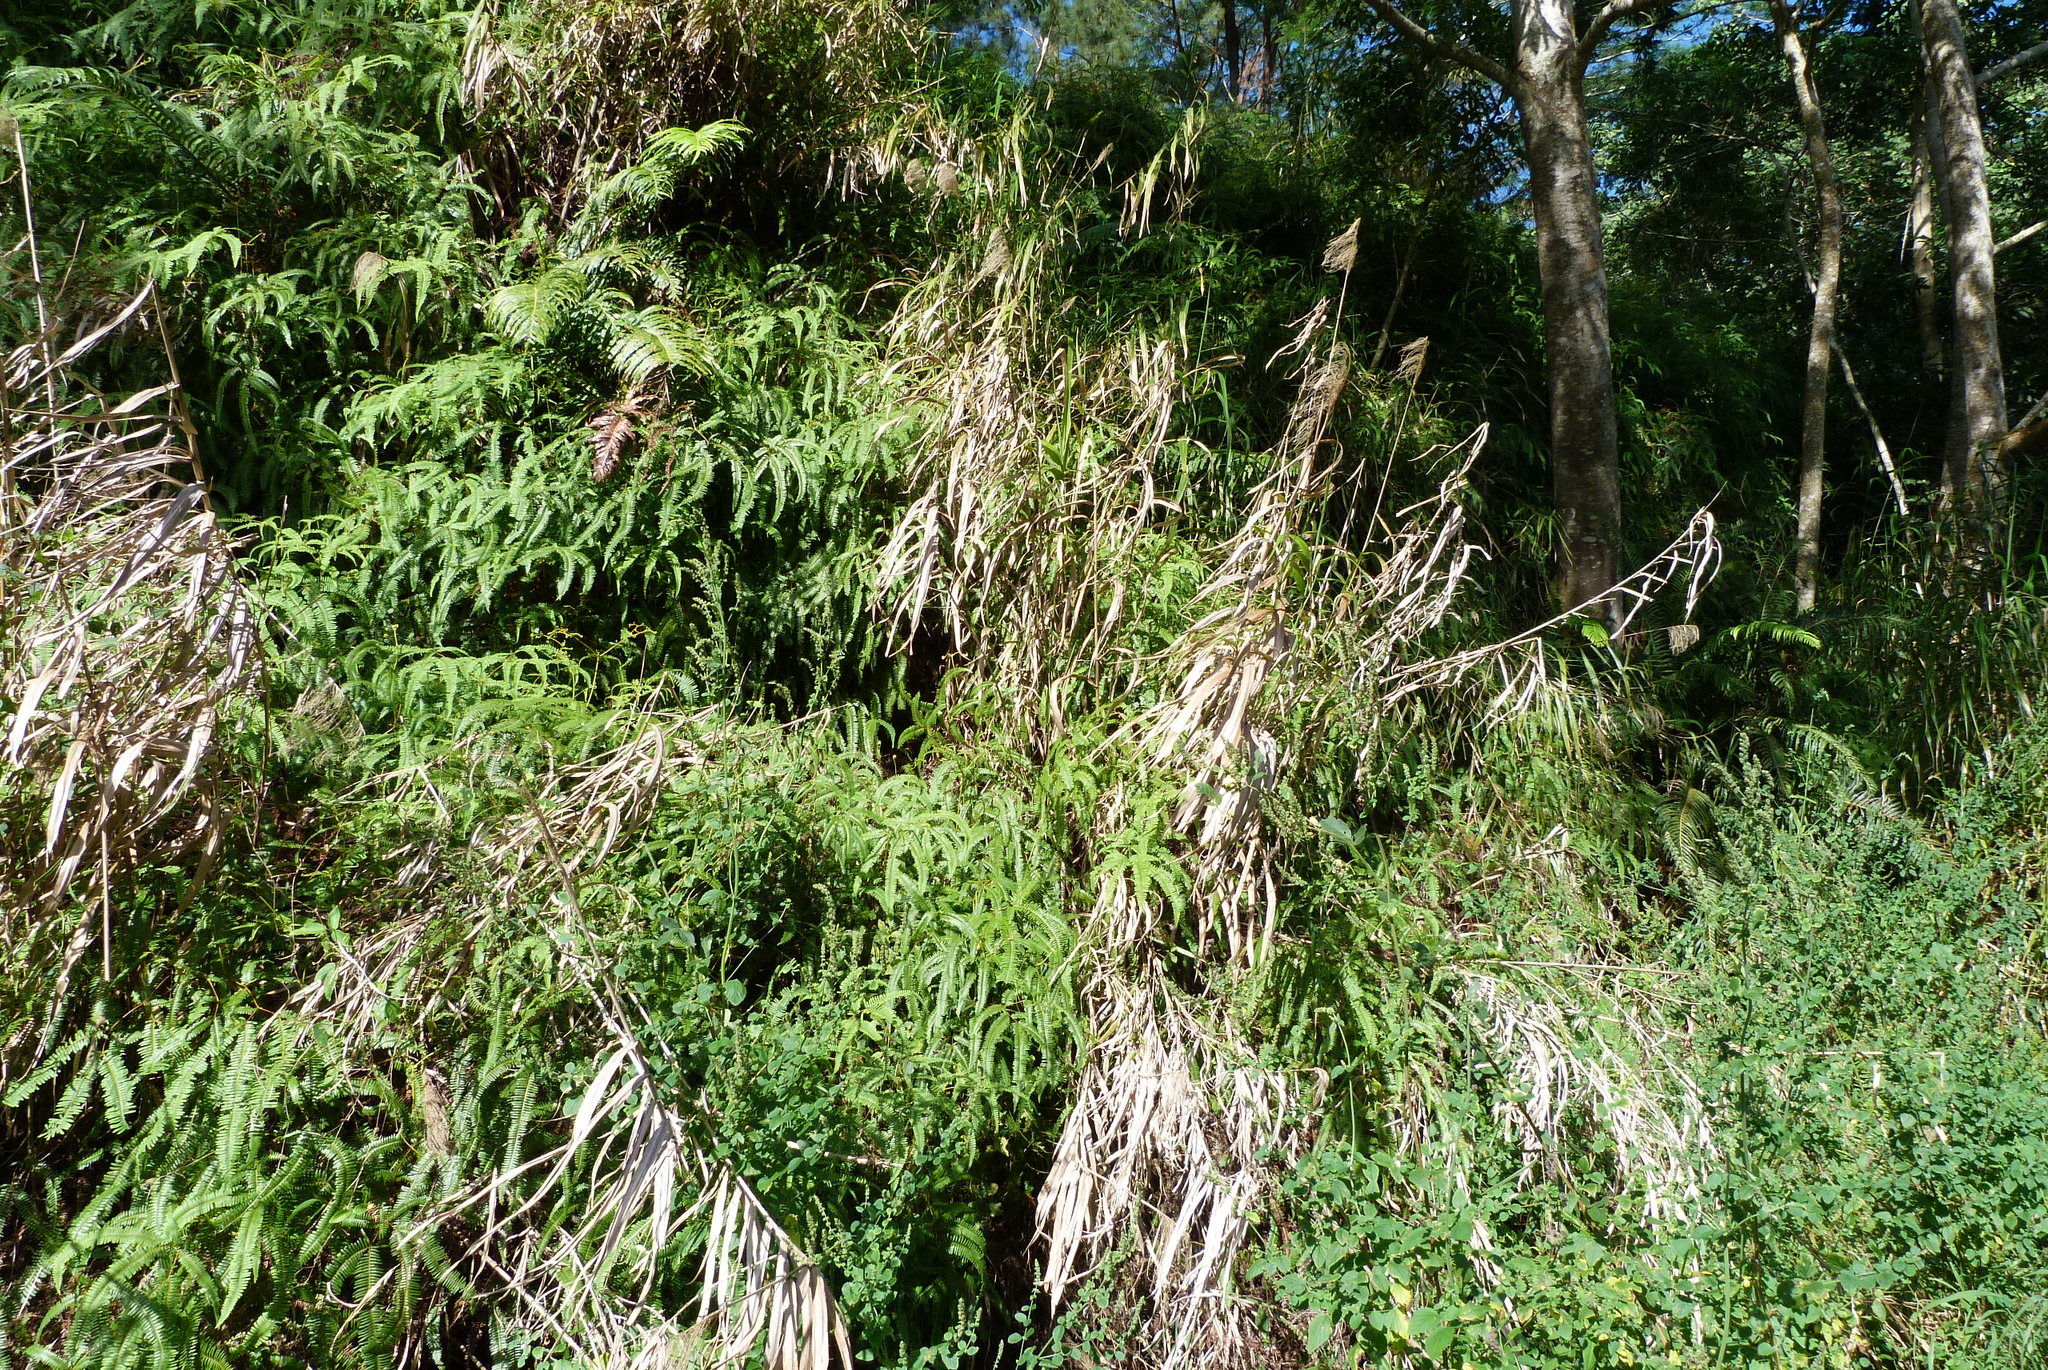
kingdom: Plantae
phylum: Tracheophyta
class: Liliopsida
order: Poales
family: Poaceae
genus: Miscanthus
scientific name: Miscanthus floridulus
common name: Pacific island silvergrass
